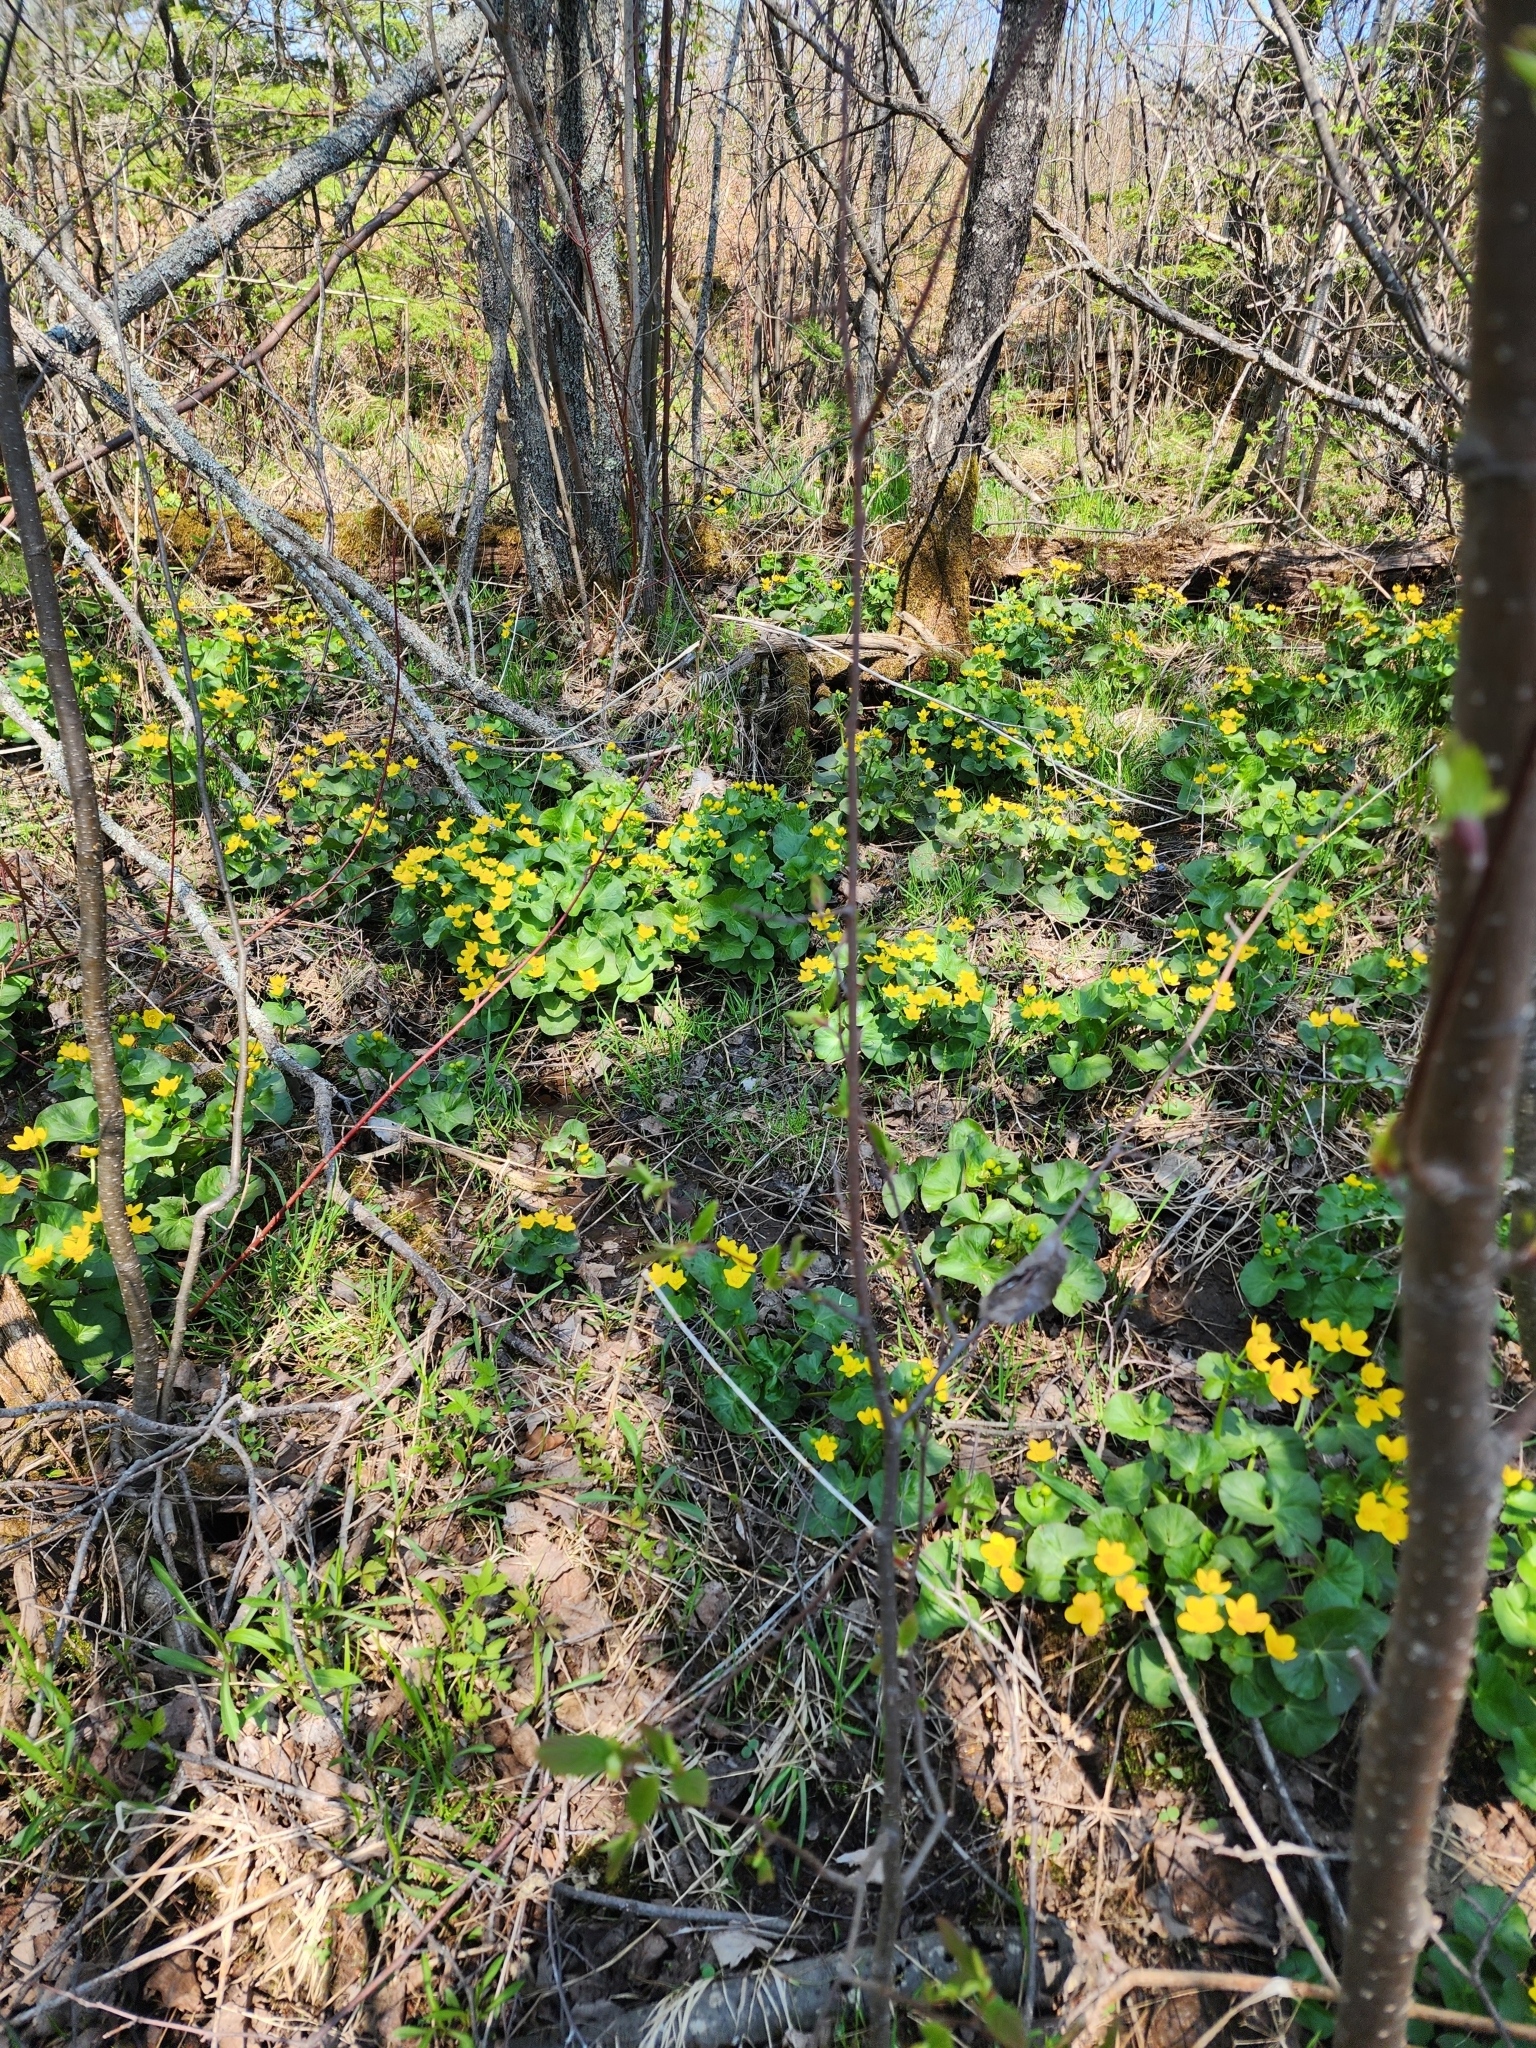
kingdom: Plantae
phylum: Tracheophyta
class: Magnoliopsida
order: Ranunculales
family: Ranunculaceae
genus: Caltha
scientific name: Caltha palustris
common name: Marsh marigold
